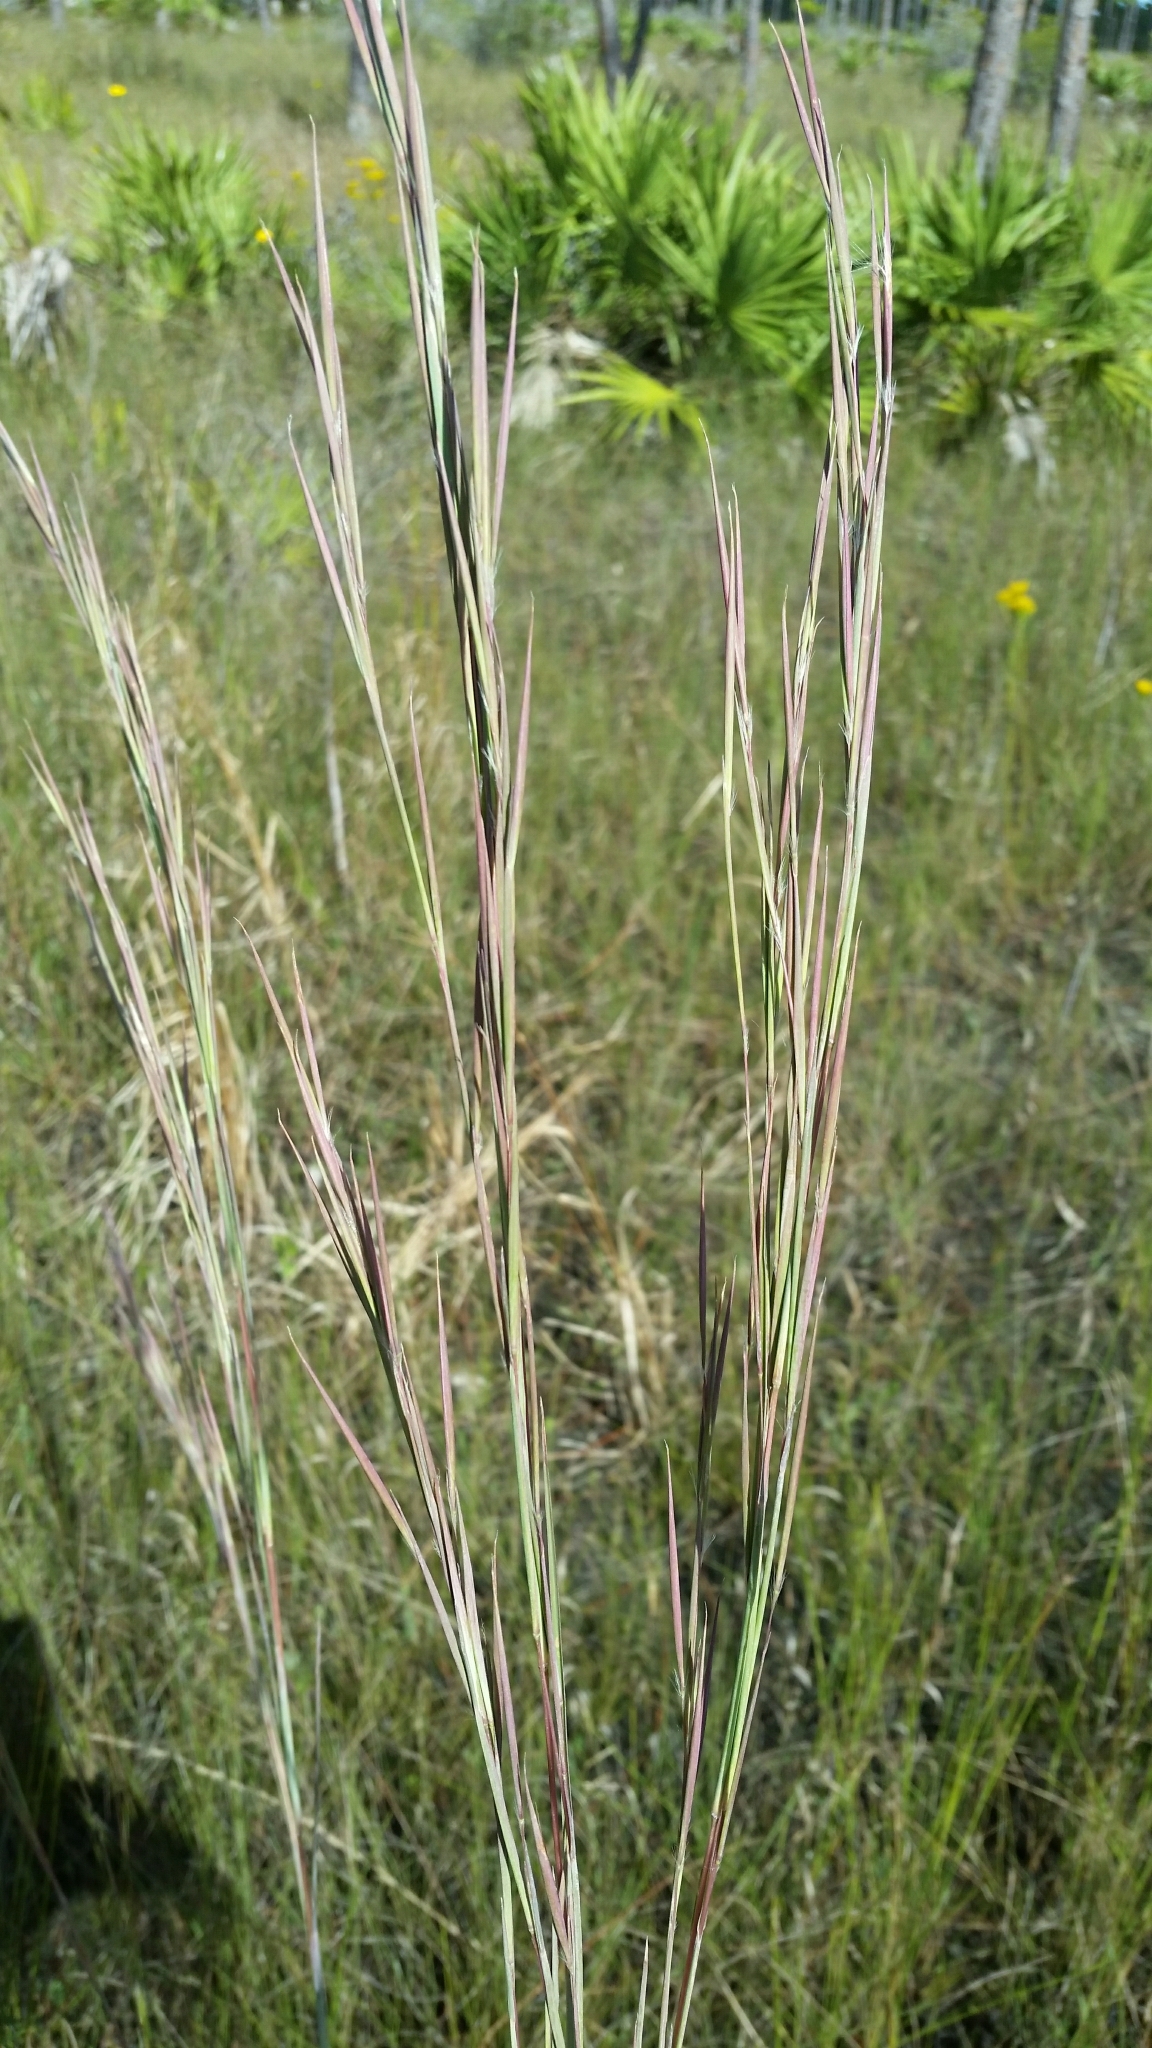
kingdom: Plantae
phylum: Tracheophyta
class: Liliopsida
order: Poales
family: Poaceae
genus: Andropogon
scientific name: Andropogon dealbatus
